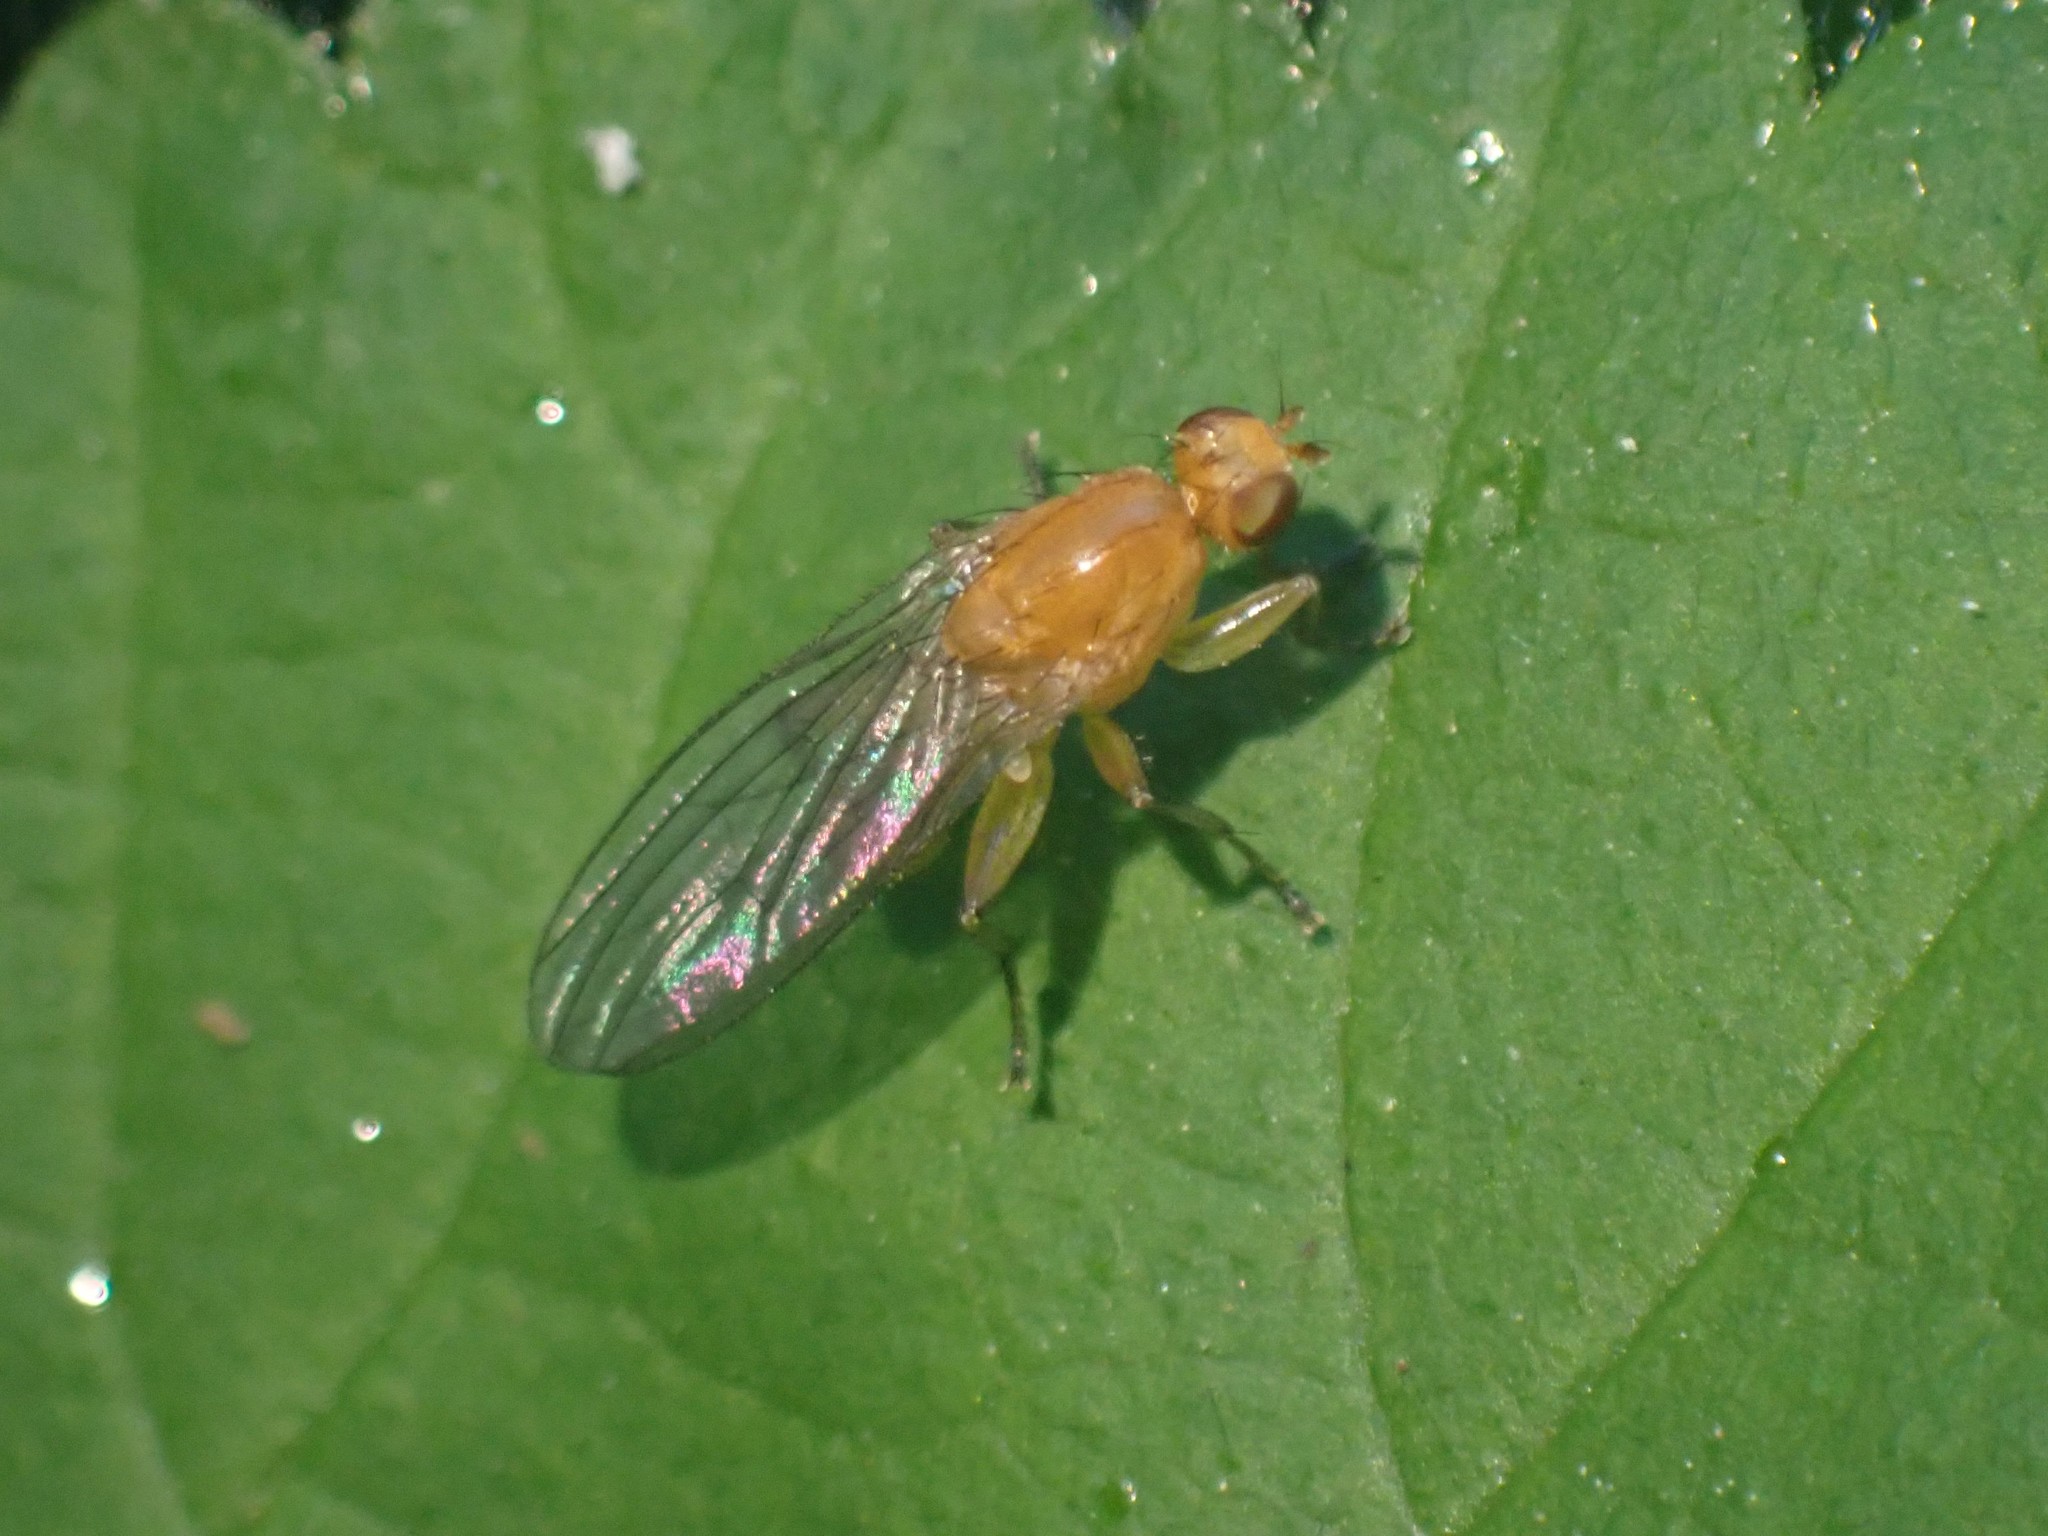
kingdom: Animalia
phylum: Arthropoda
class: Insecta
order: Diptera
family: Heleomyzidae
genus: Suillia
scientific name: Suillia convergens
